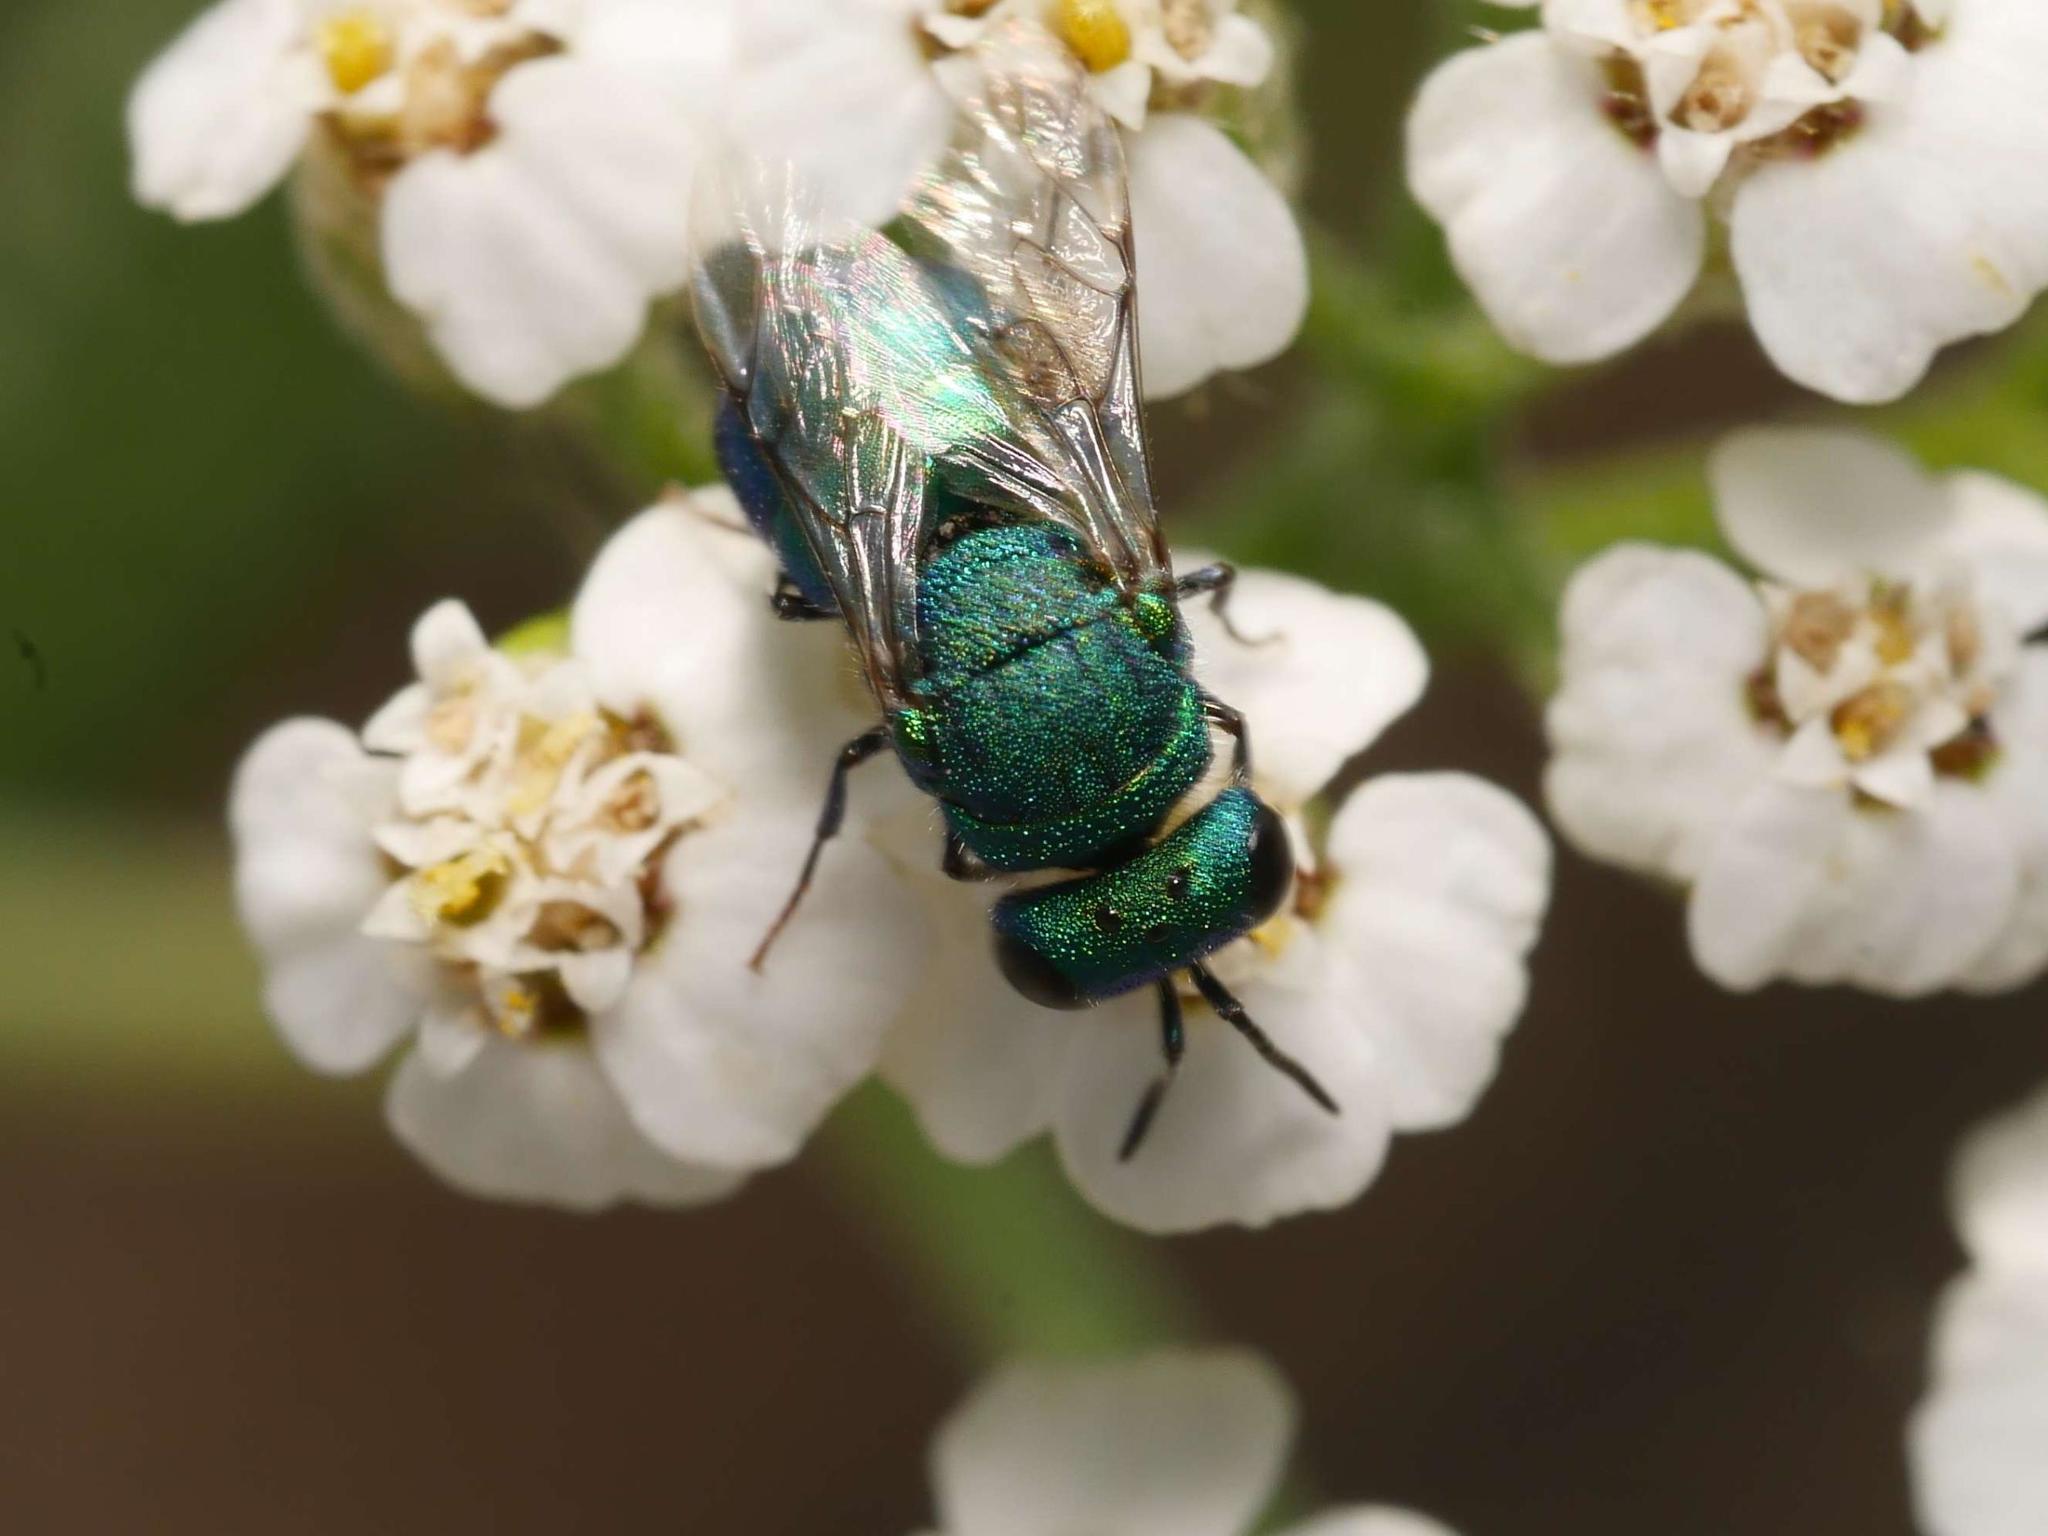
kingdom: Animalia
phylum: Arthropoda
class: Insecta
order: Hymenoptera
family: Chrysididae
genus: Spinolia
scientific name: Spinolia unicolor
